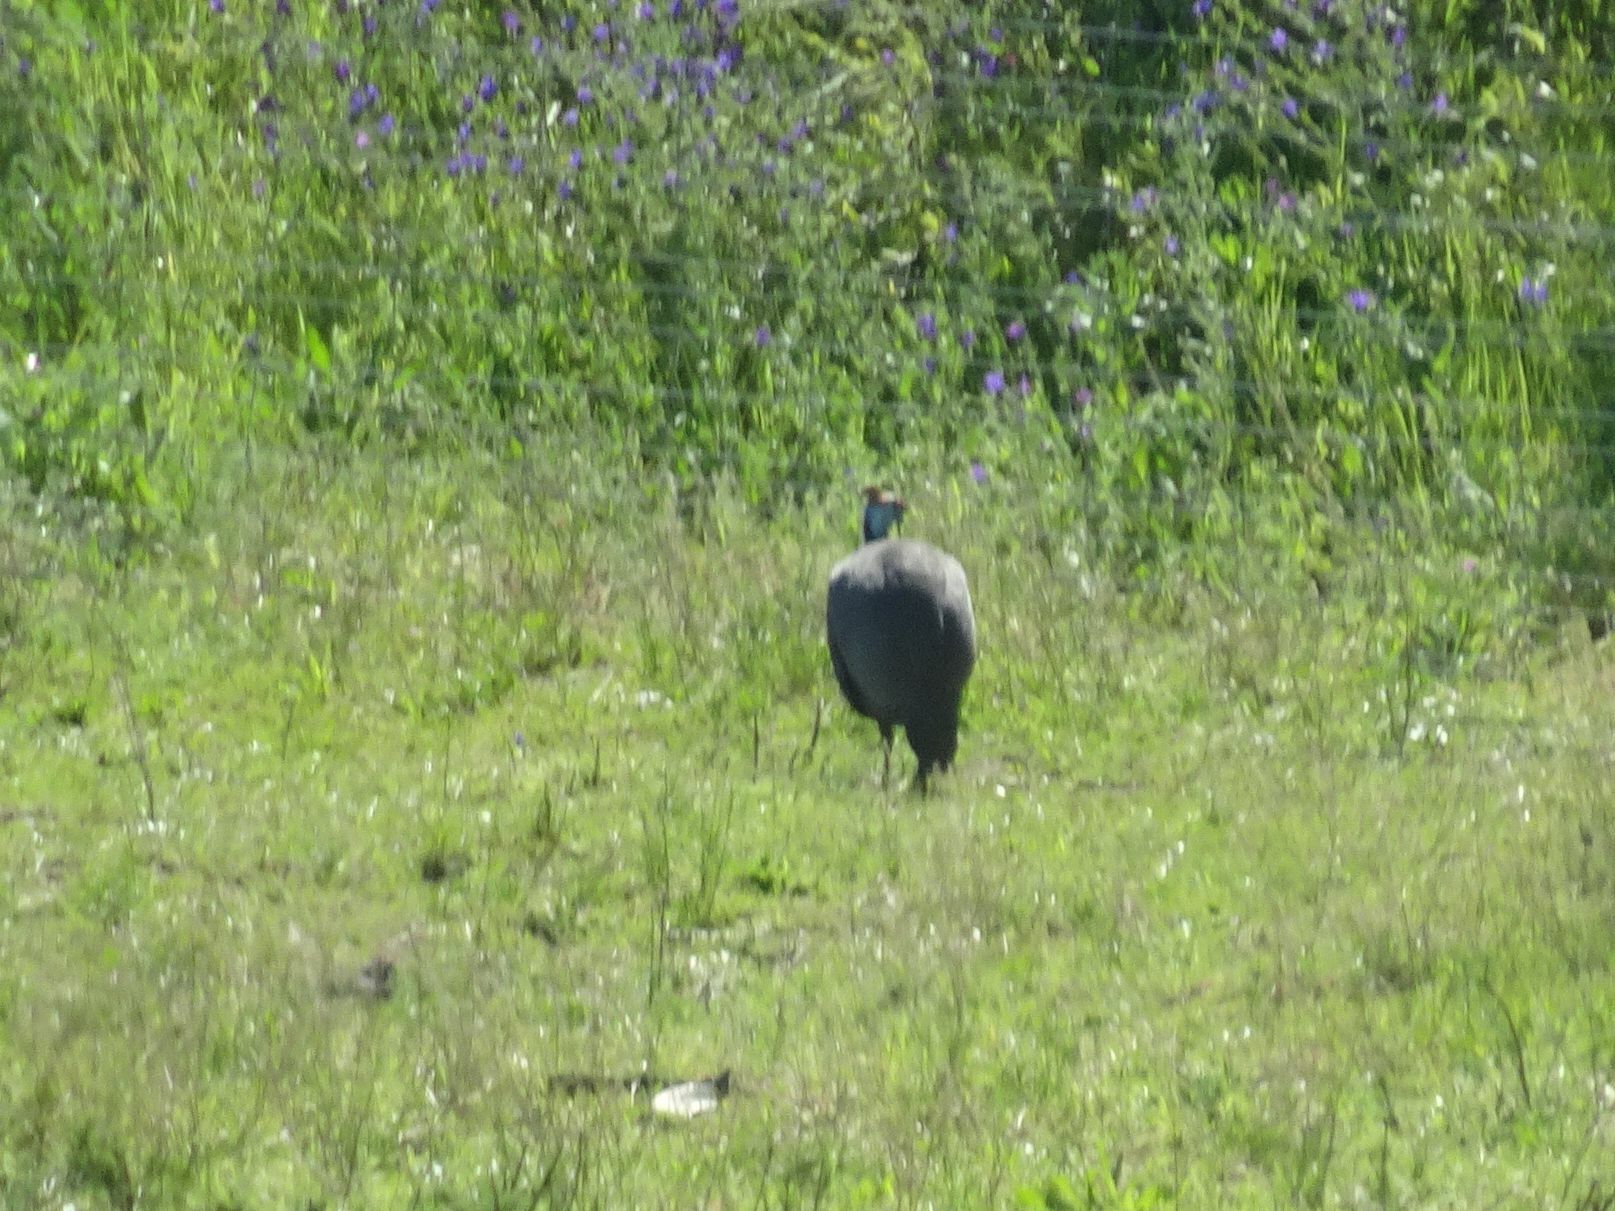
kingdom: Animalia
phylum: Chordata
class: Aves
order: Galliformes
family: Numididae
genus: Numida
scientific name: Numida meleagris
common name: Helmeted guineafowl
